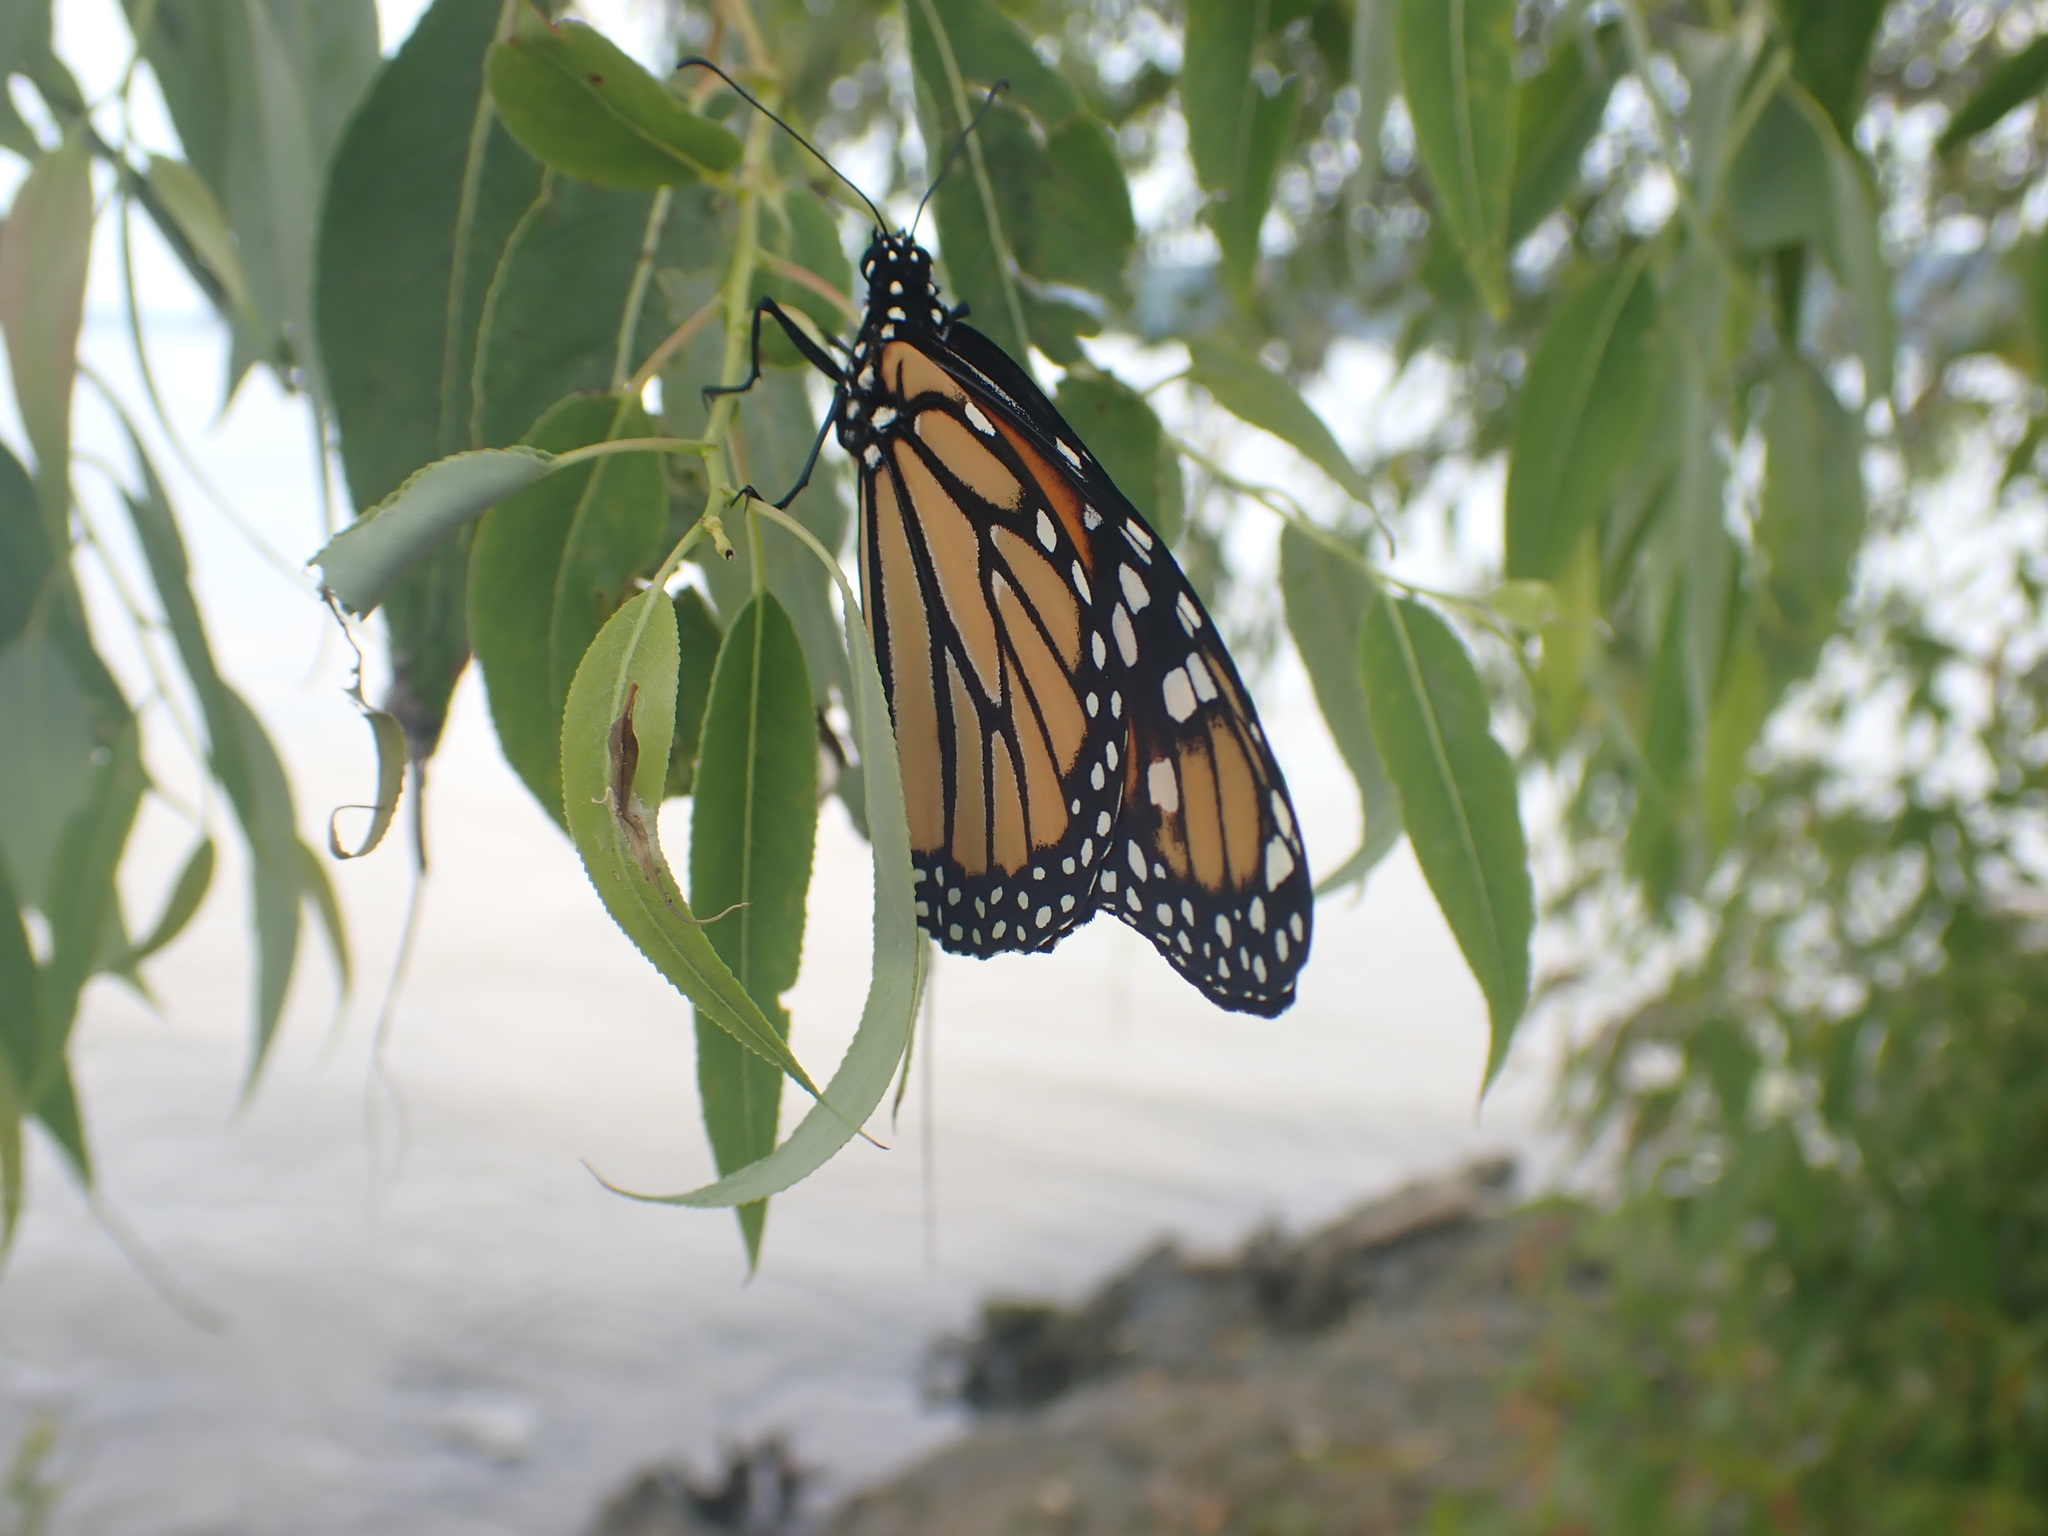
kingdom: Animalia
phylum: Arthropoda
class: Insecta
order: Lepidoptera
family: Nymphalidae
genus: Danaus
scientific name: Danaus plexippus
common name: Monarch
